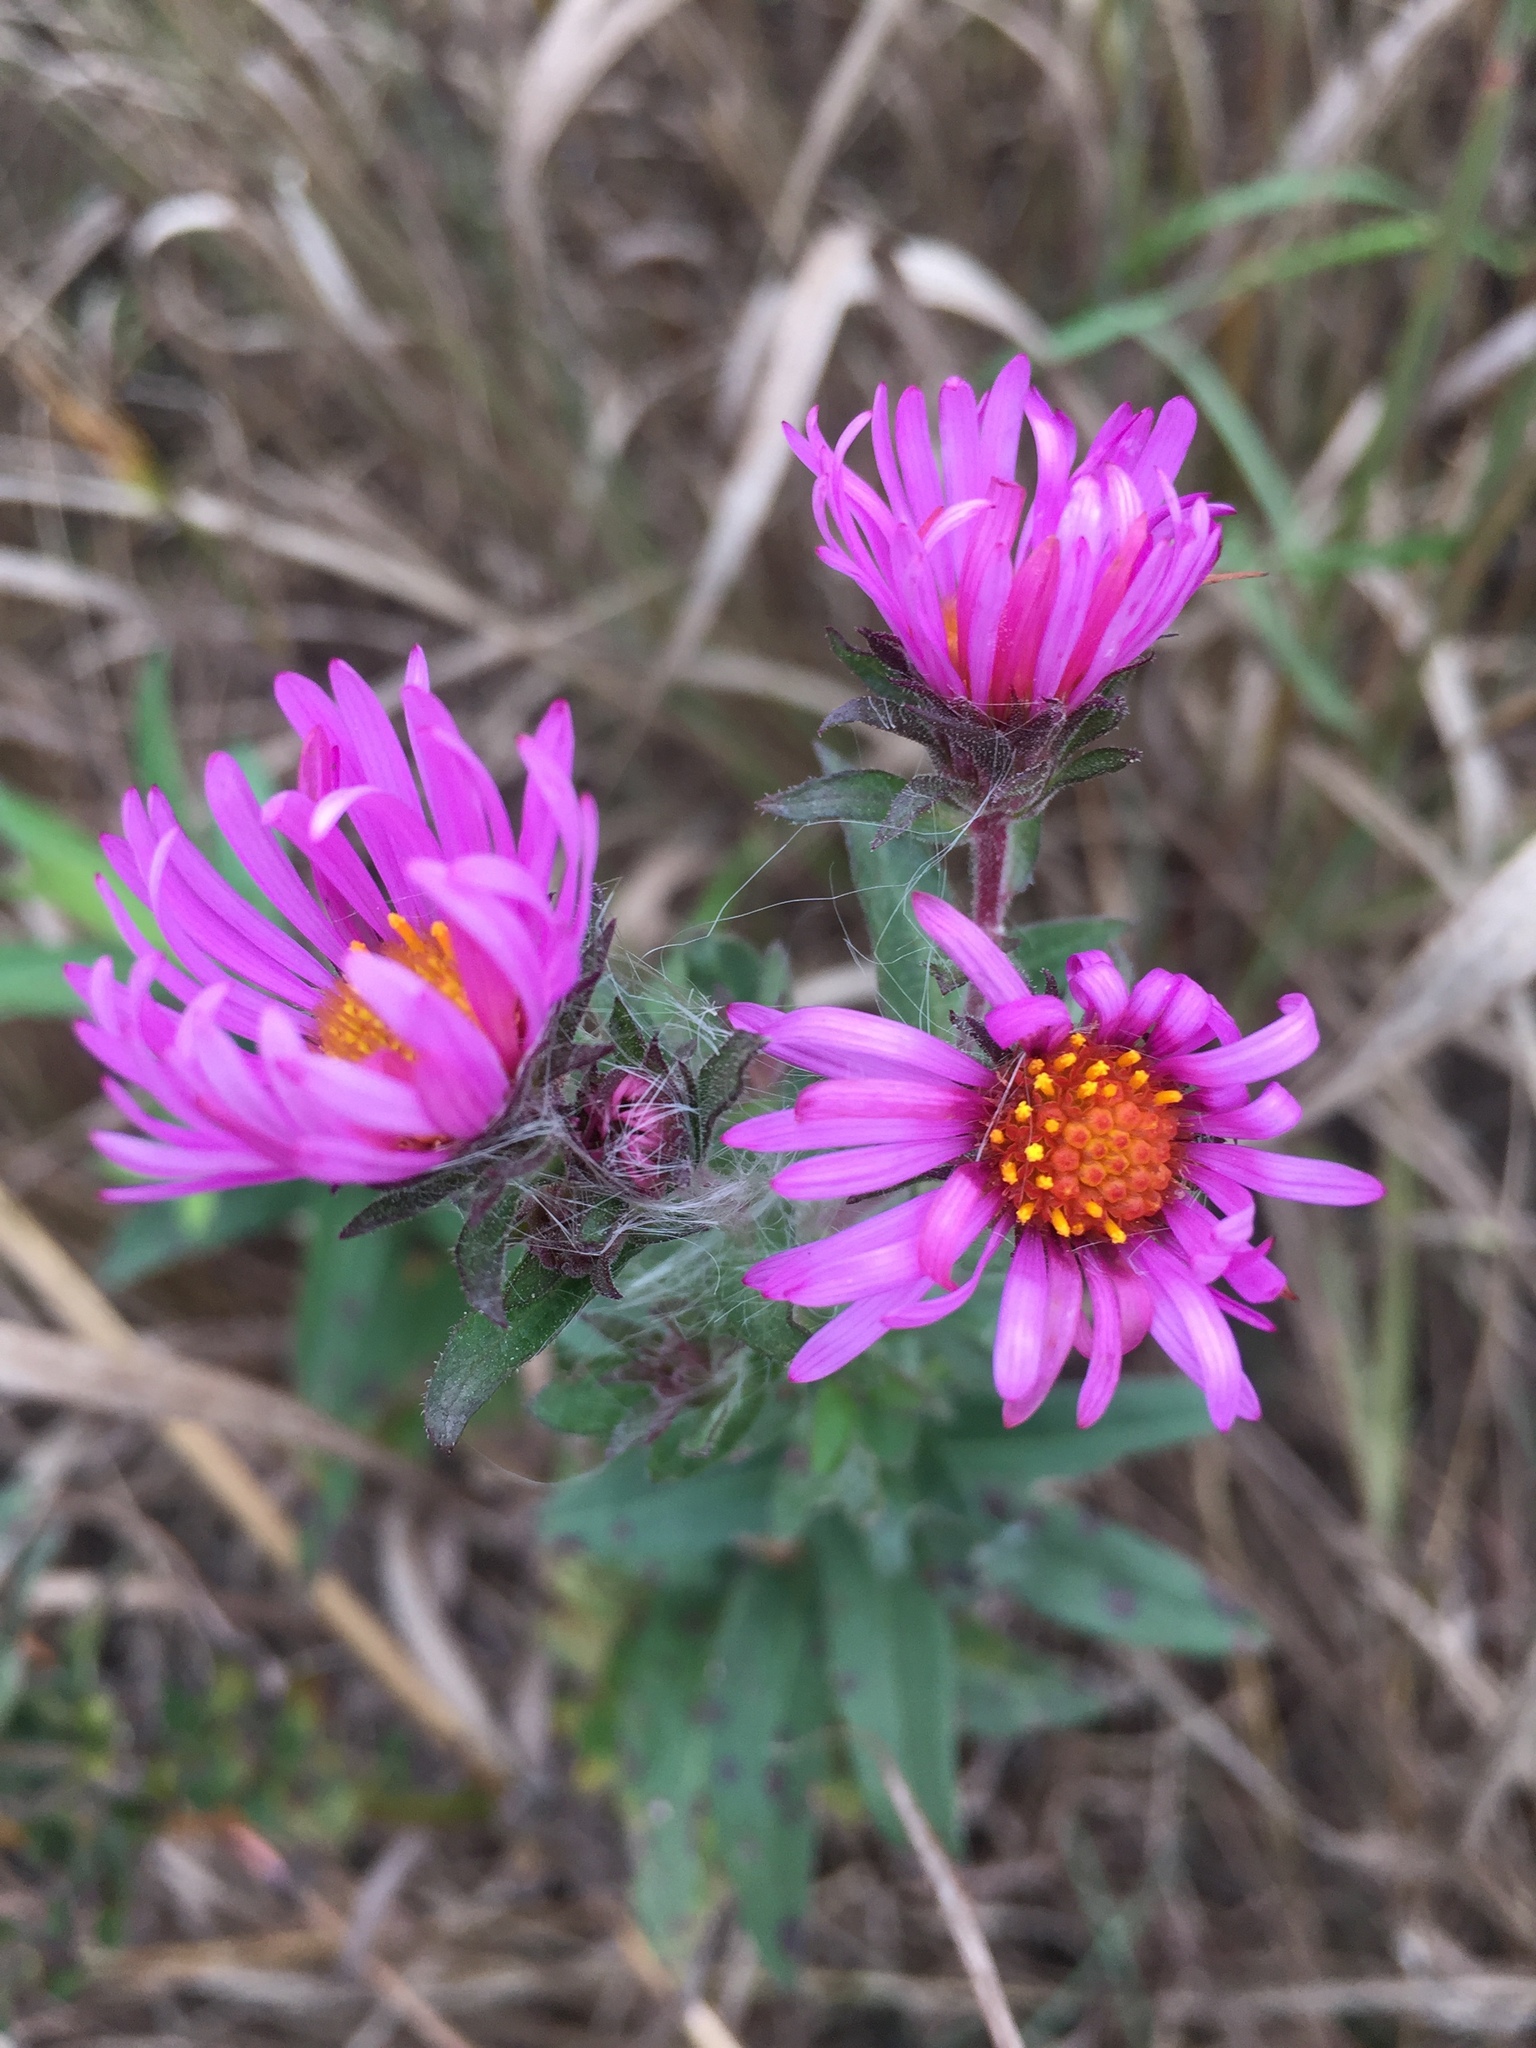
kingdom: Plantae
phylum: Tracheophyta
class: Magnoliopsida
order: Asterales
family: Asteraceae
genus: Symphyotrichum
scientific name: Symphyotrichum novae-angliae
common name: Michaelmas daisy
